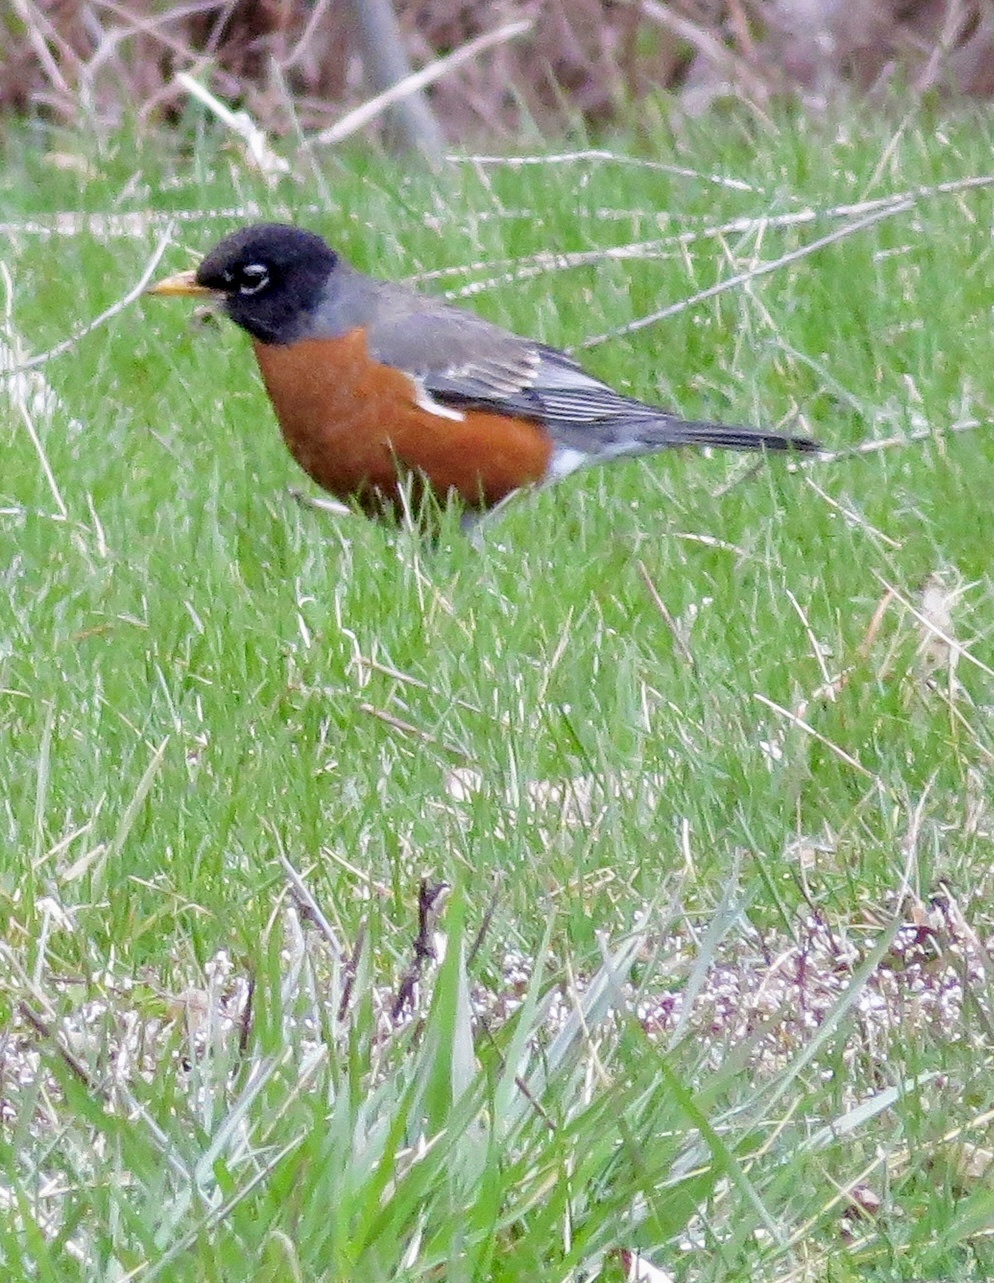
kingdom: Animalia
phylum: Chordata
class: Aves
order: Passeriformes
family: Turdidae
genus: Turdus
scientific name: Turdus migratorius
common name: American robin
